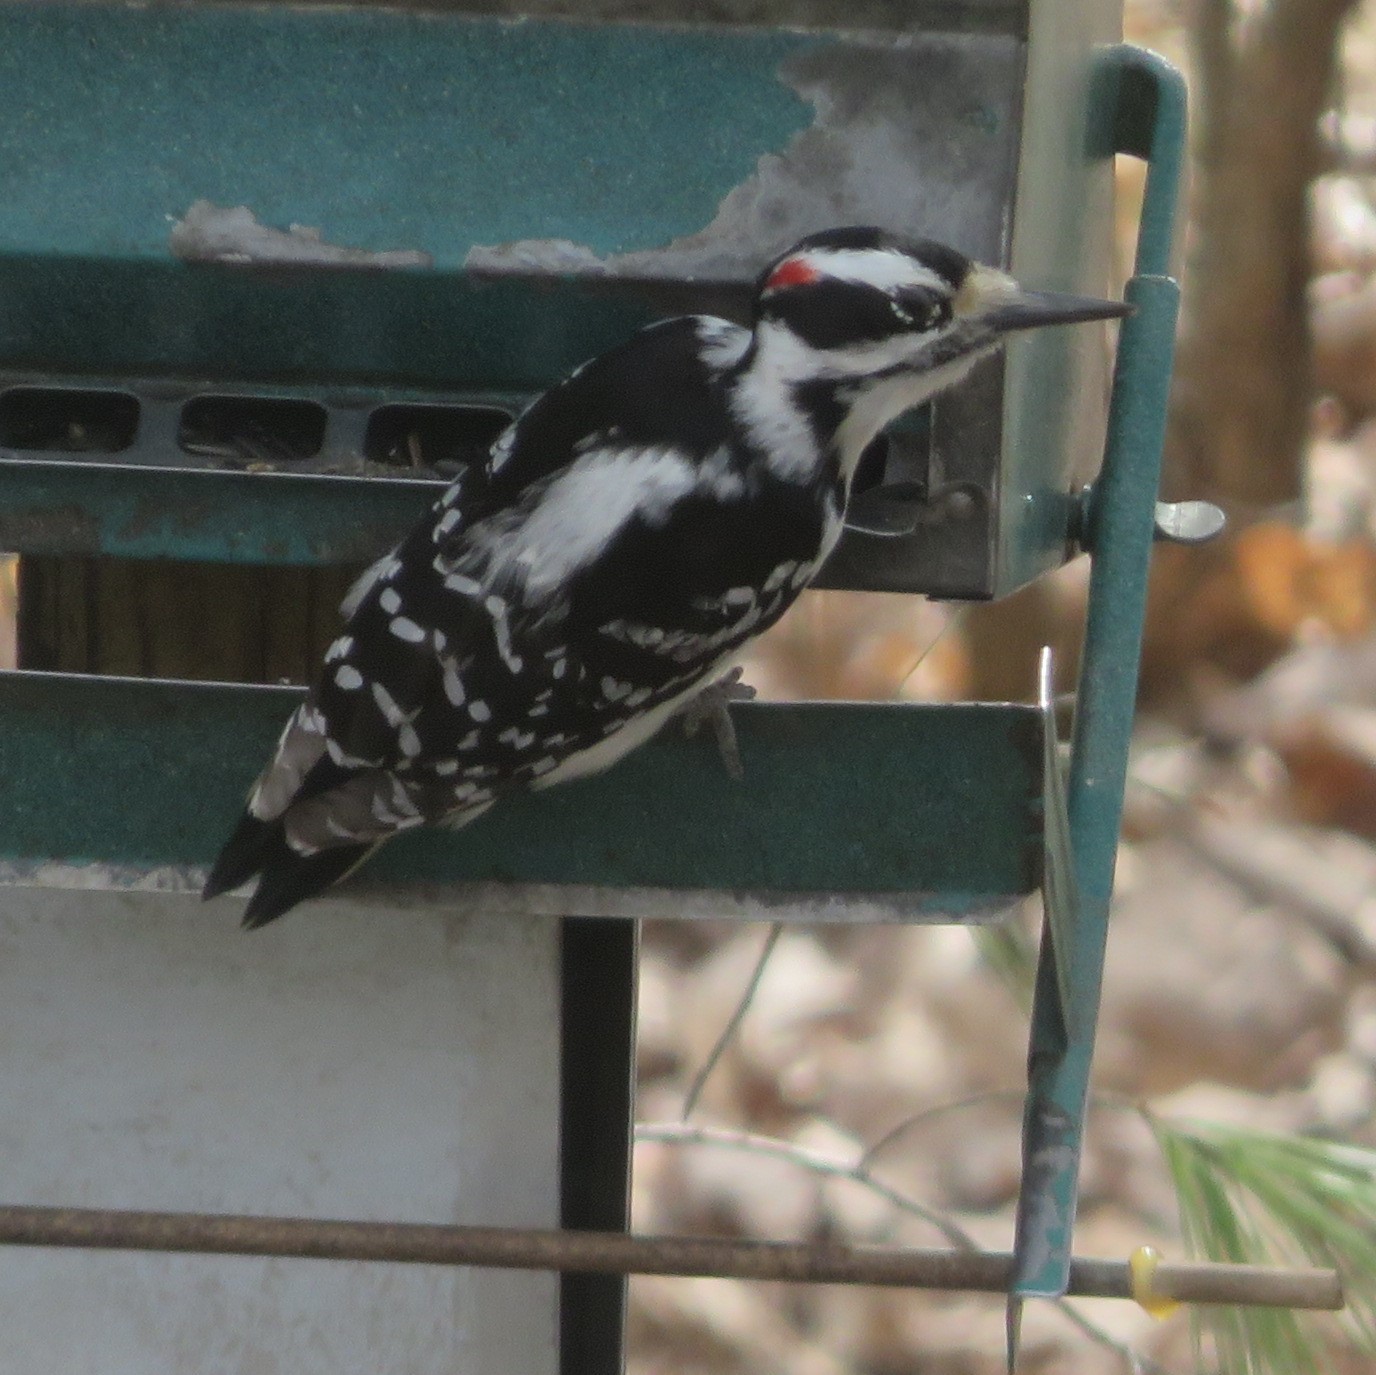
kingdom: Animalia
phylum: Chordata
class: Aves
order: Piciformes
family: Picidae
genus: Leuconotopicus
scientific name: Leuconotopicus villosus
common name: Hairy woodpecker
